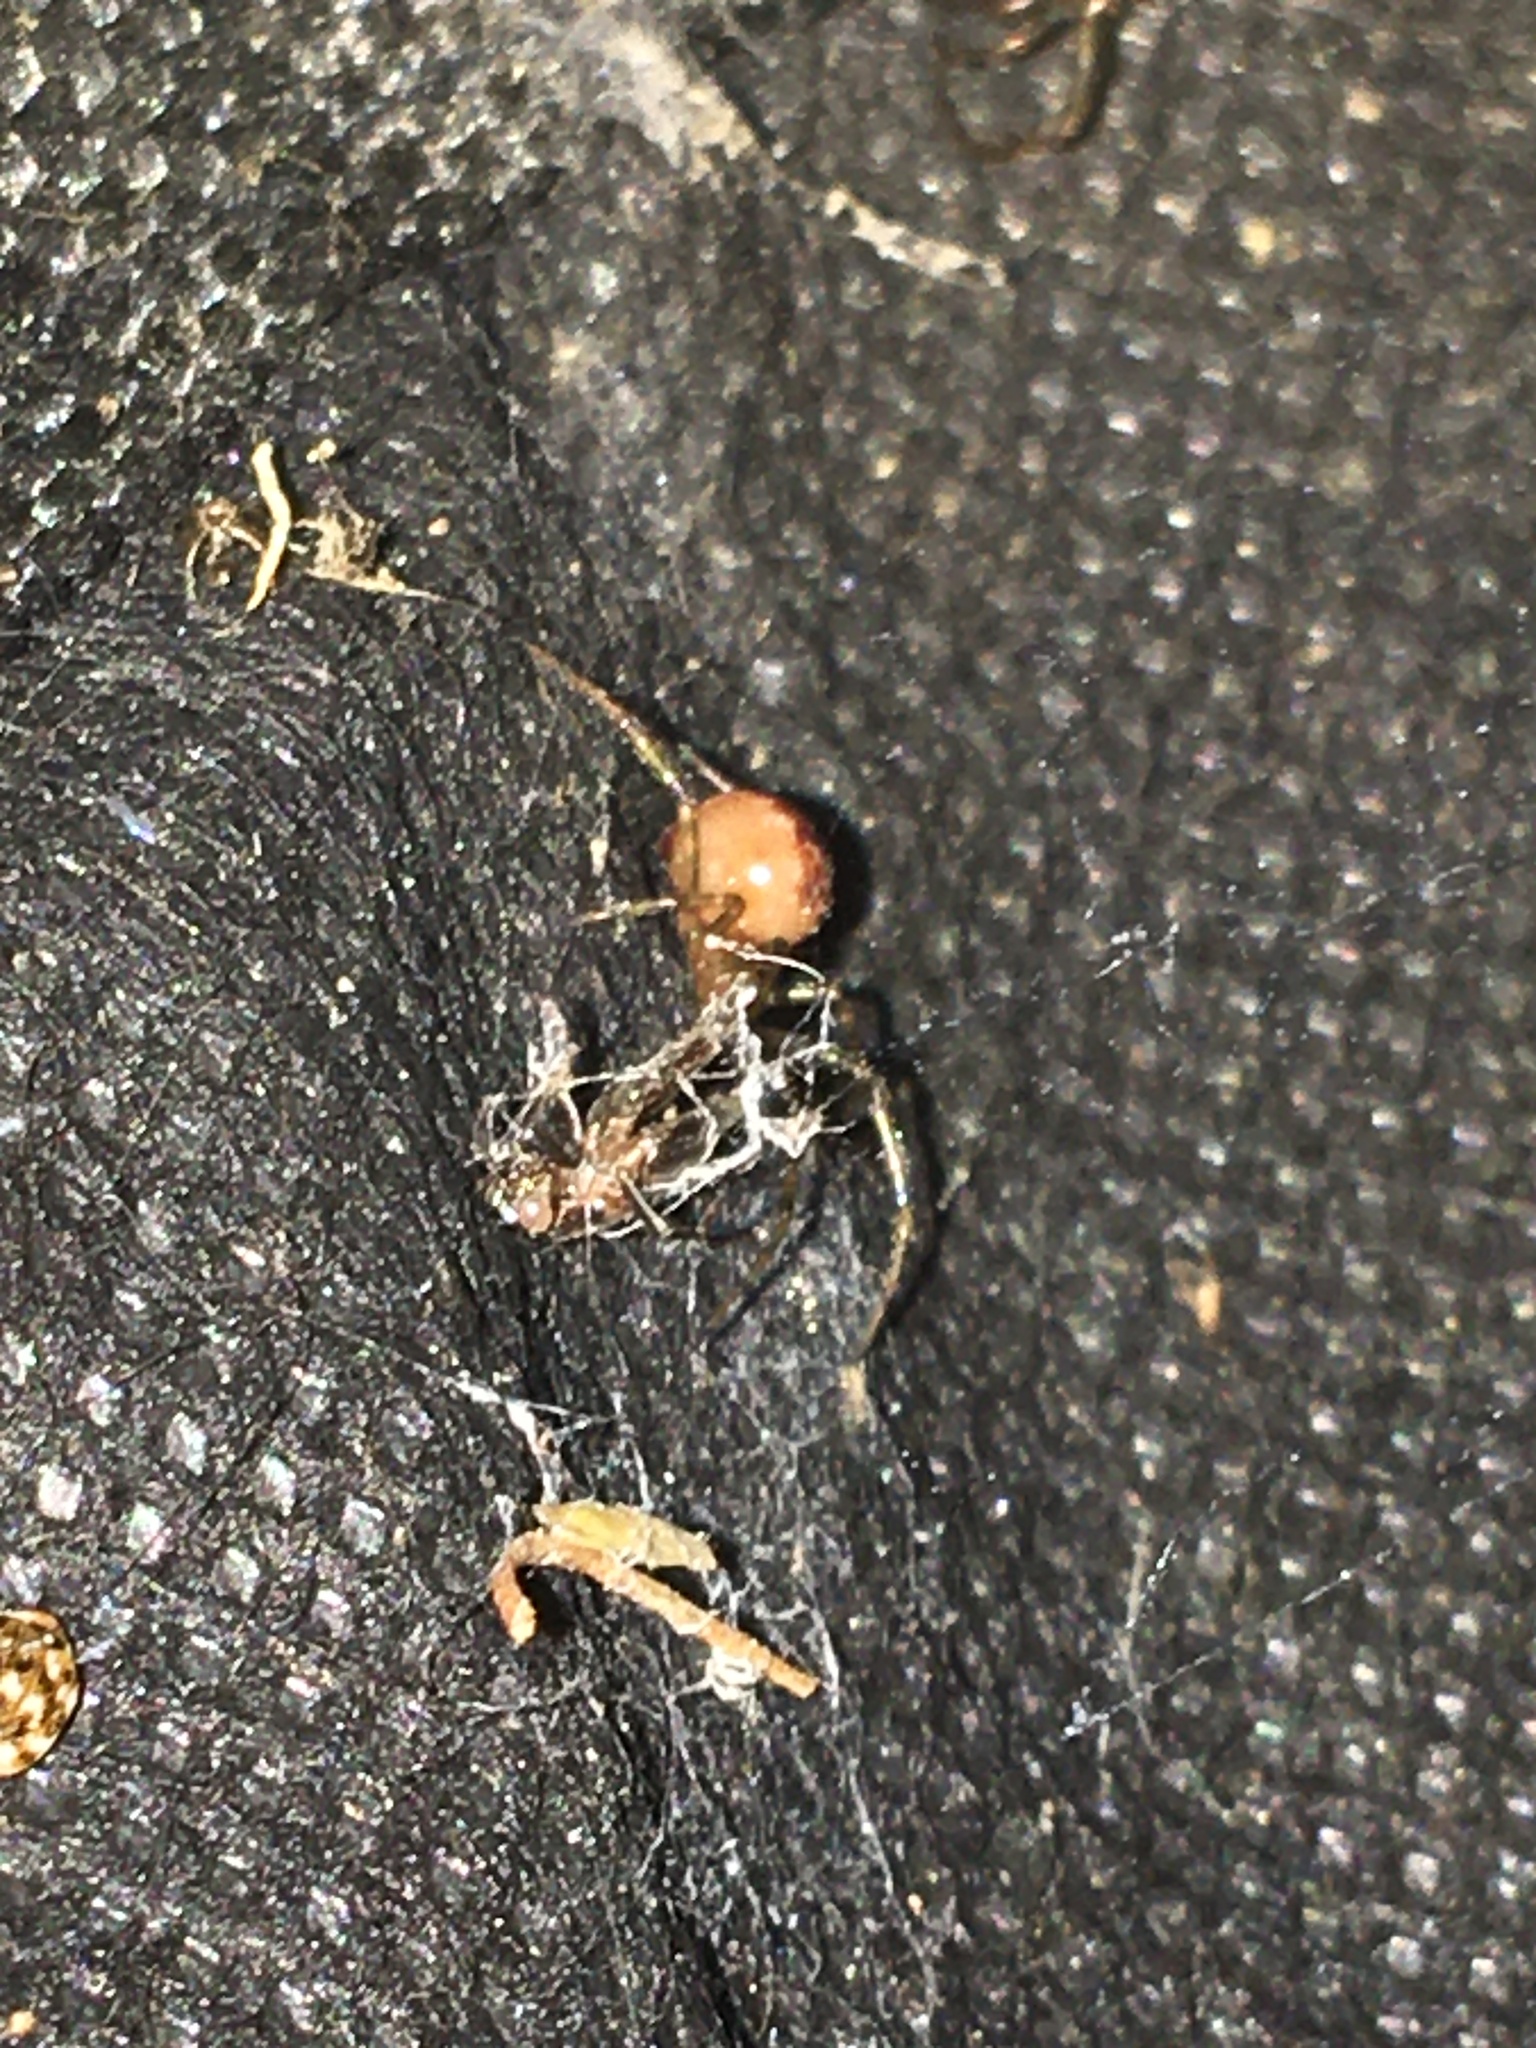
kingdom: Animalia
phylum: Arthropoda
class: Arachnida
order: Araneae
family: Theridiidae
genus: Steatoda
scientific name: Steatoda triangulosa
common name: Triangulate bud spider
